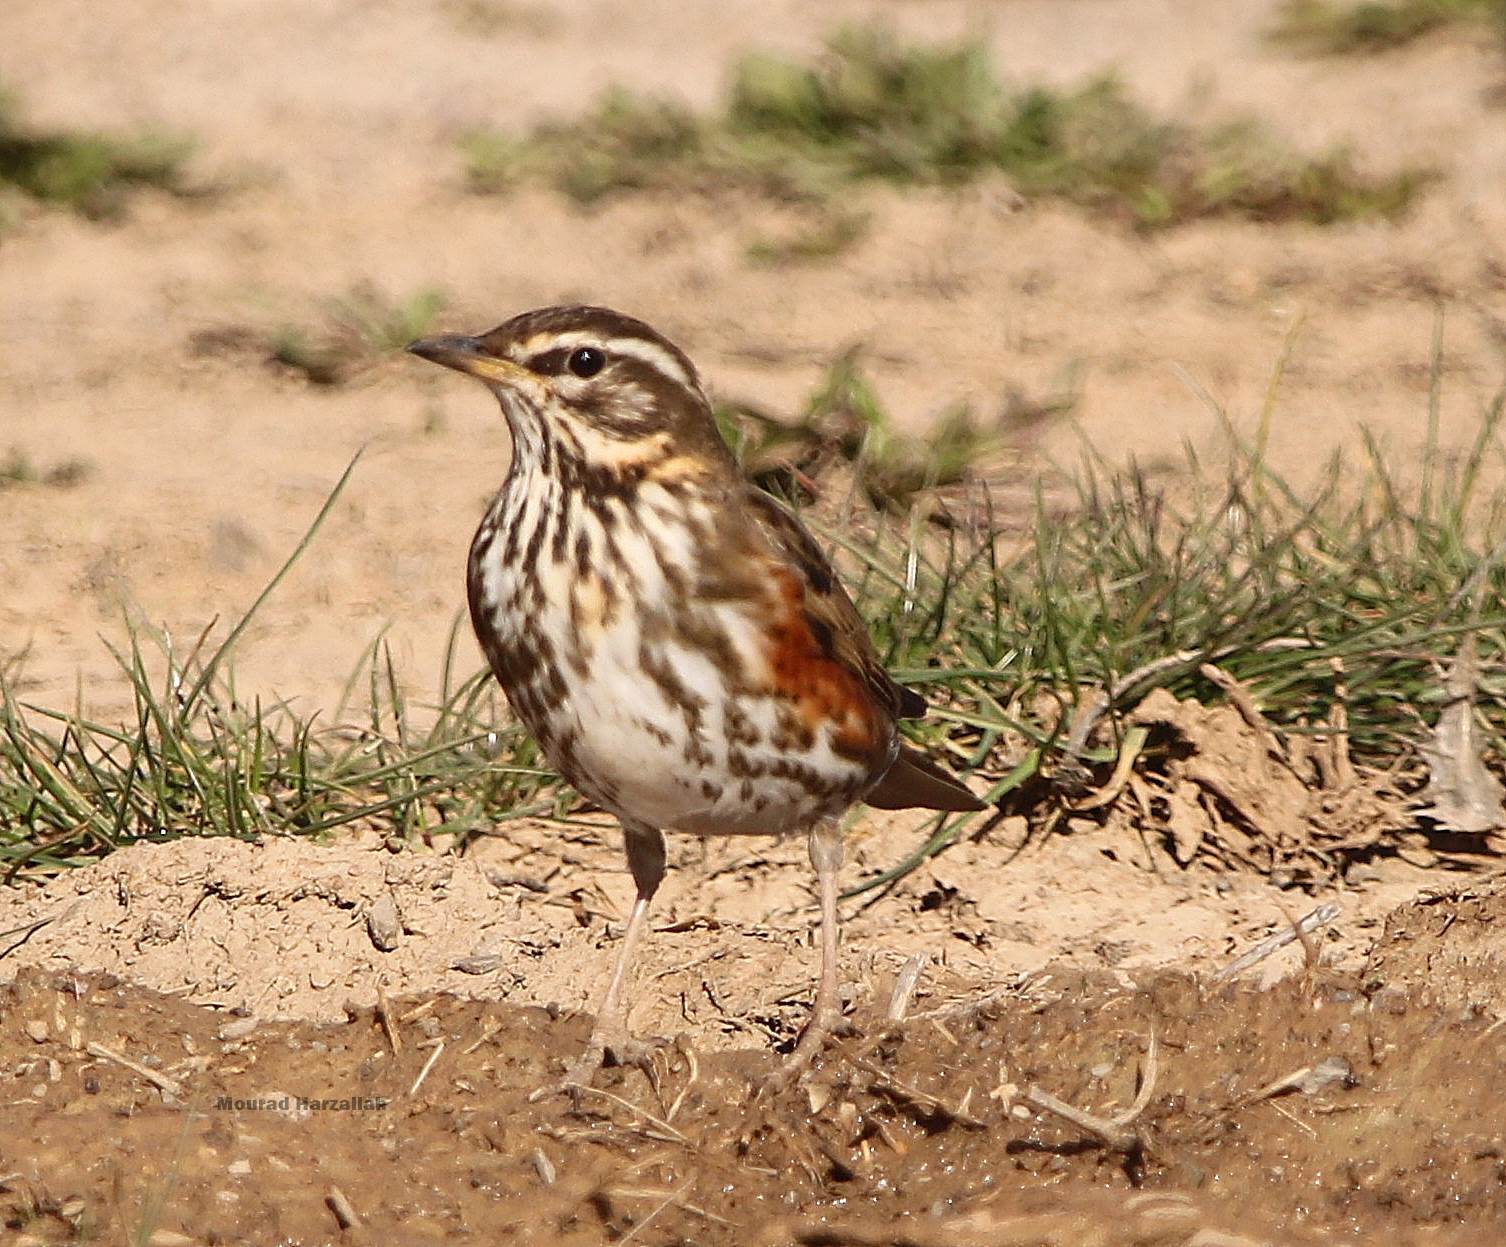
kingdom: Animalia
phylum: Chordata
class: Aves
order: Passeriformes
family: Turdidae
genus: Turdus
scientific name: Turdus iliacus
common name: Redwing
